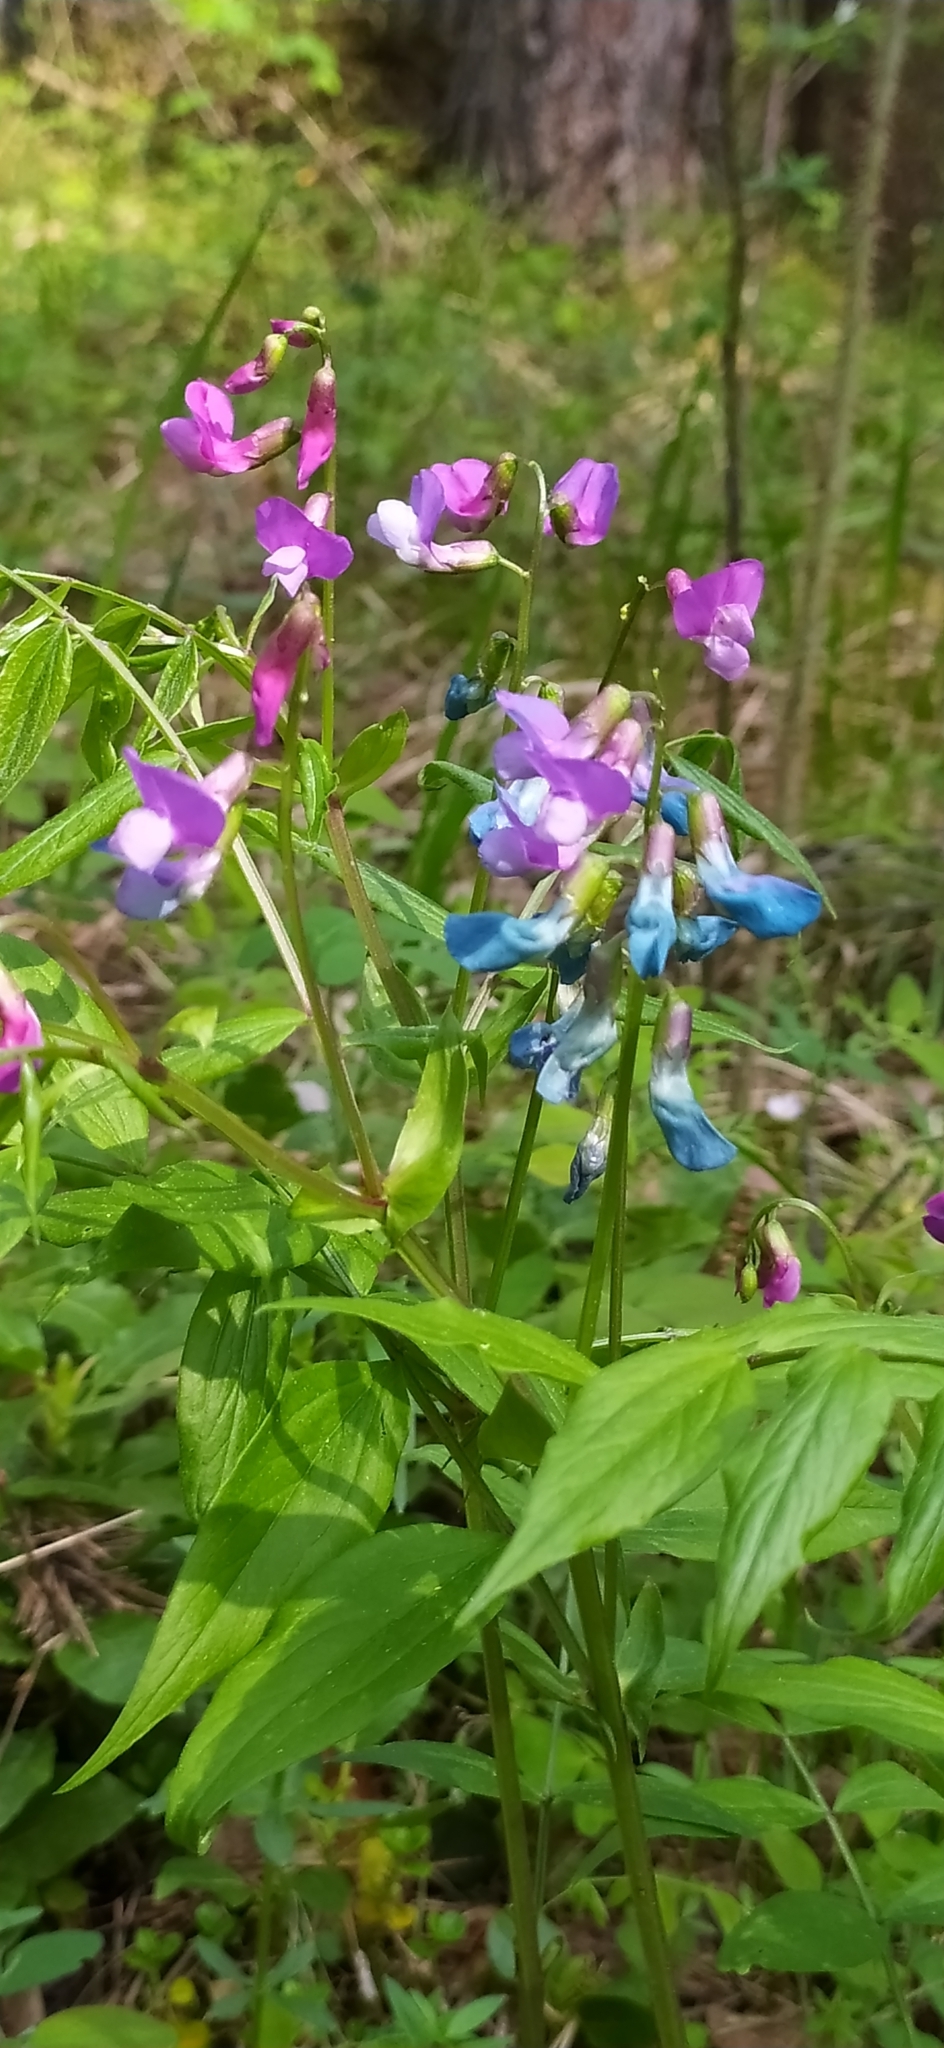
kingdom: Plantae
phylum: Tracheophyta
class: Magnoliopsida
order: Fabales
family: Fabaceae
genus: Lathyrus
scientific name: Lathyrus vernus
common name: Spring pea
